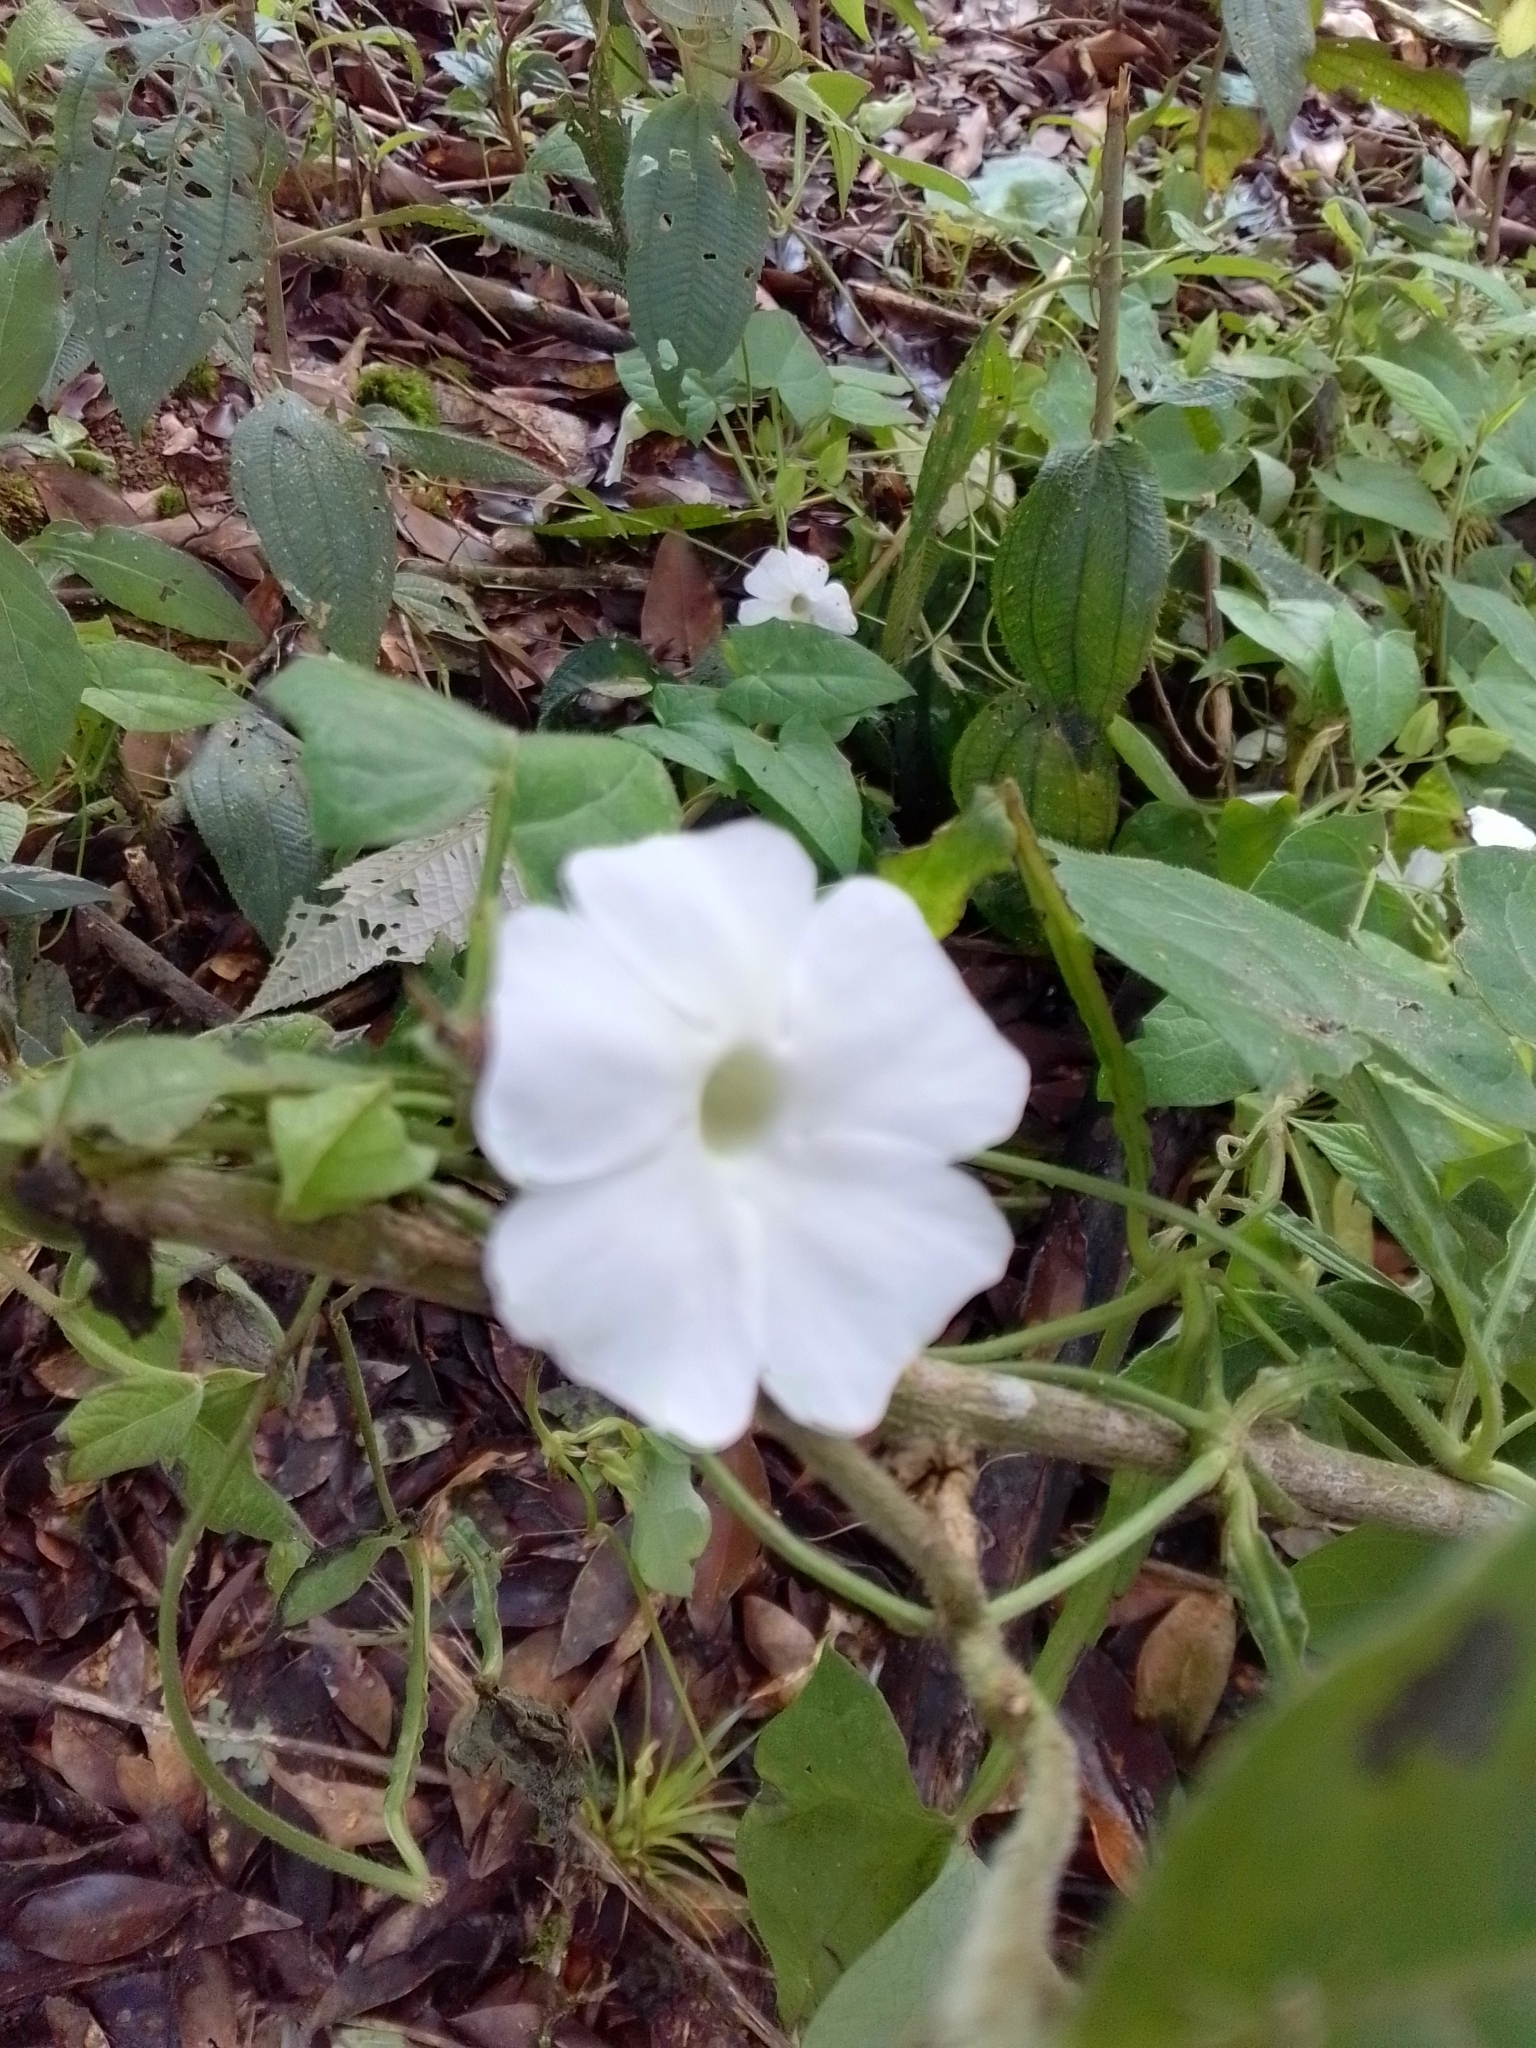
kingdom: Plantae
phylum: Tracheophyta
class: Magnoliopsida
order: Lamiales
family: Acanthaceae
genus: Thunbergia
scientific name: Thunbergia fragrans
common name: Whitelady
